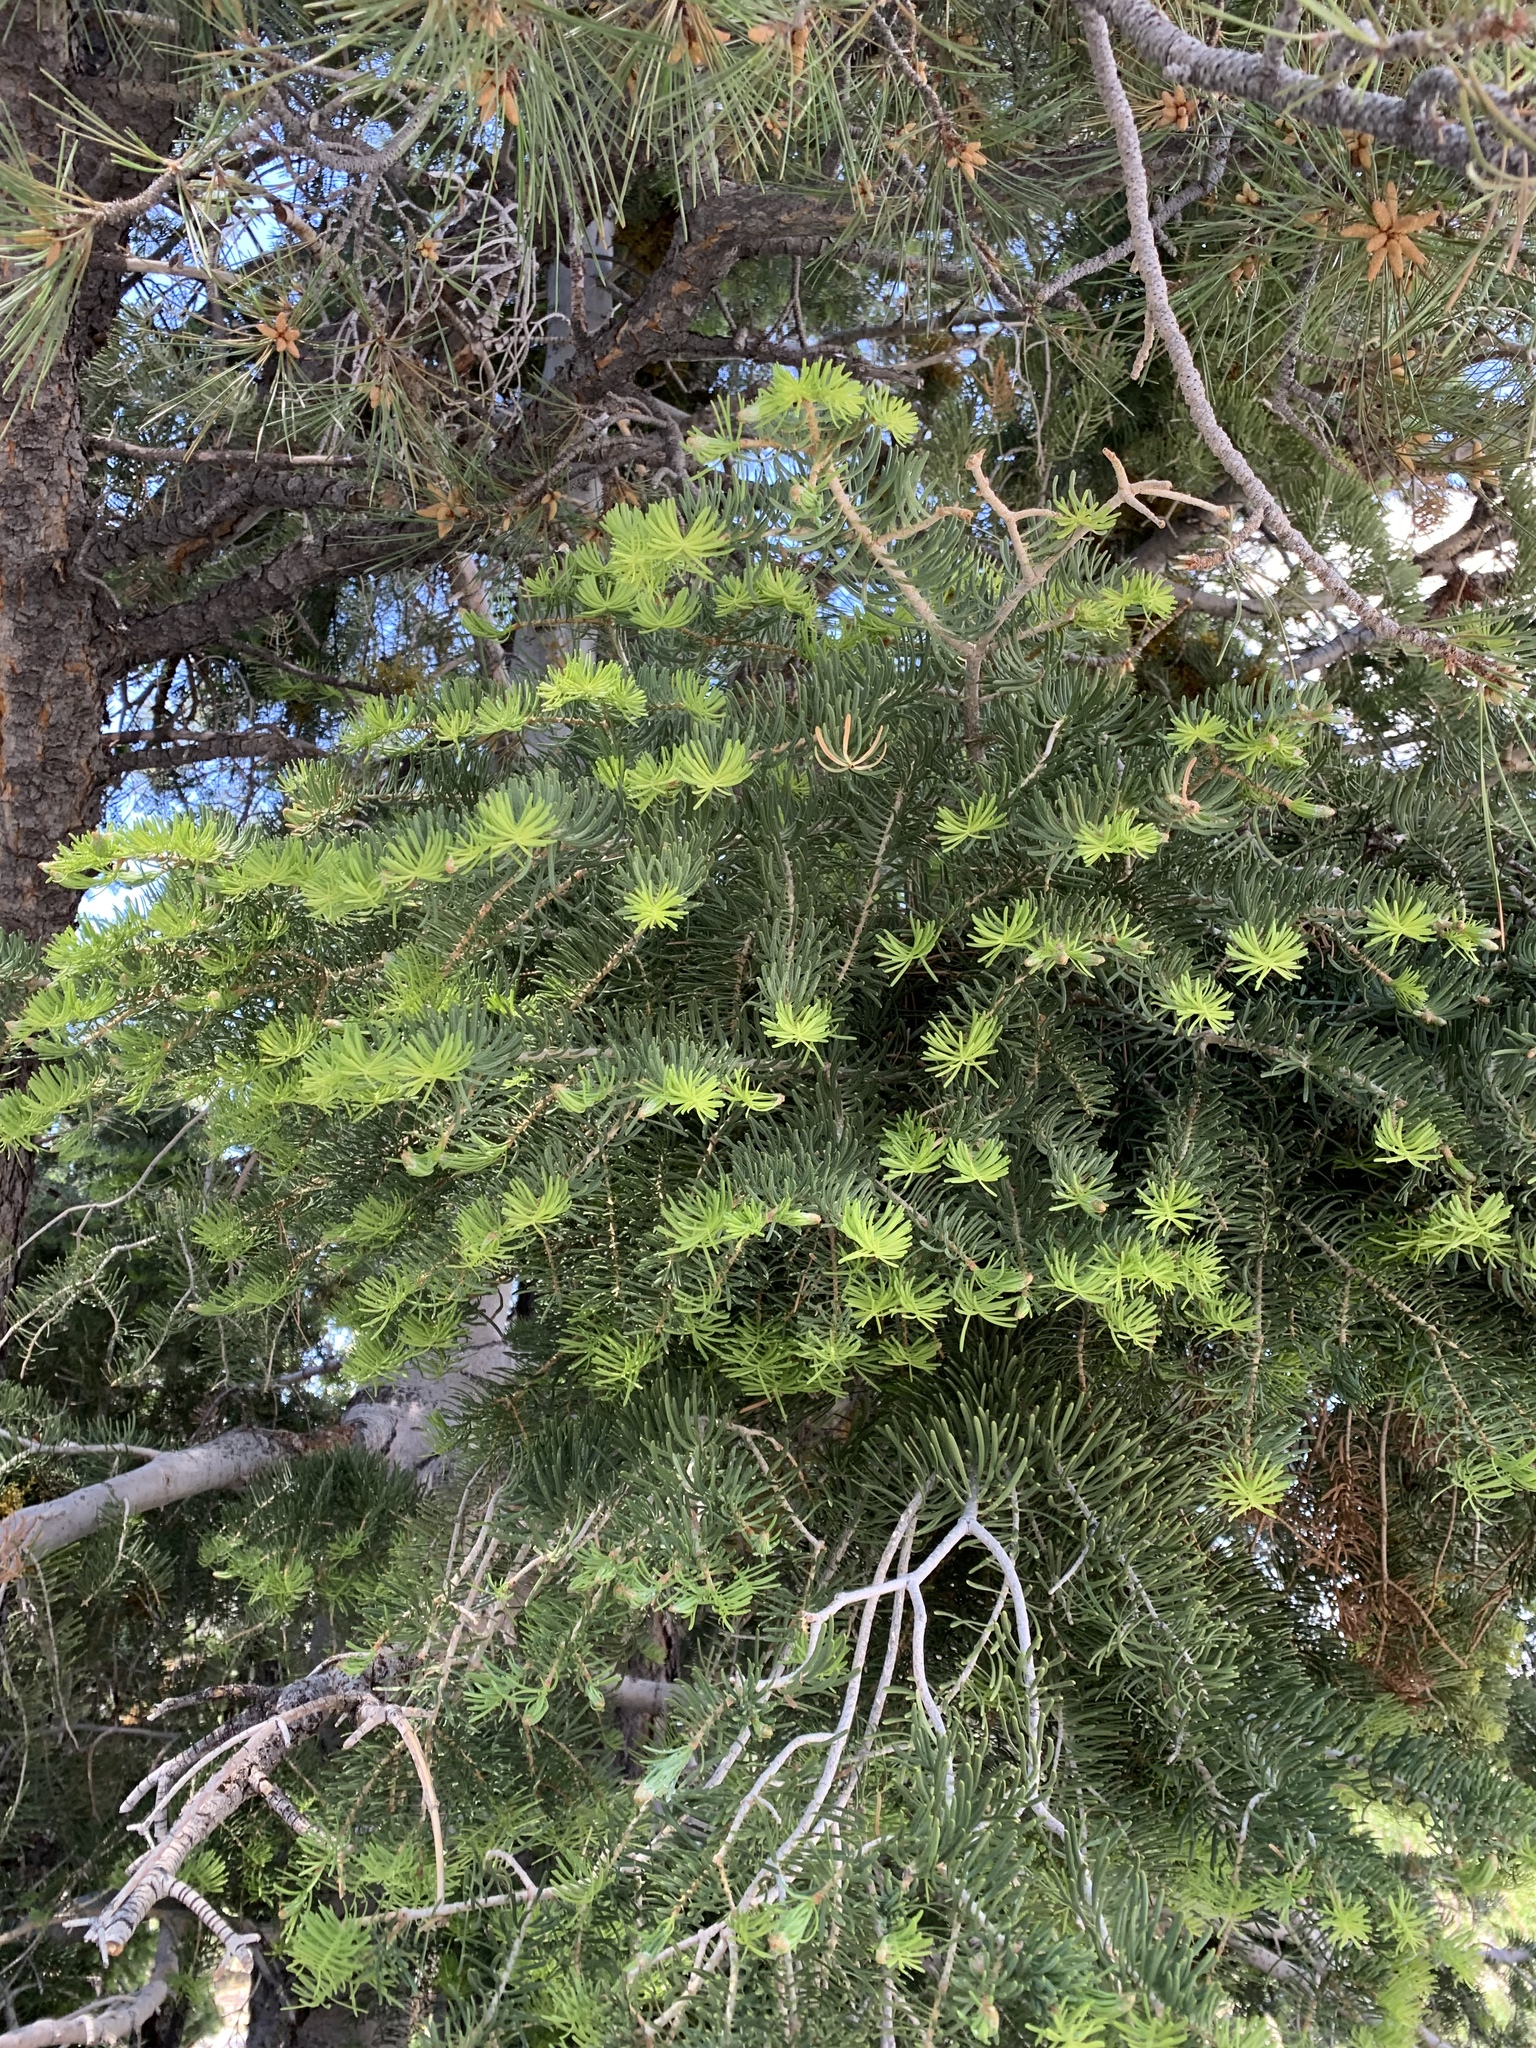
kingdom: Plantae
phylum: Tracheophyta
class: Pinopsida
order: Pinales
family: Pinaceae
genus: Abies
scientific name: Abies concolor
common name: Colorado fir
